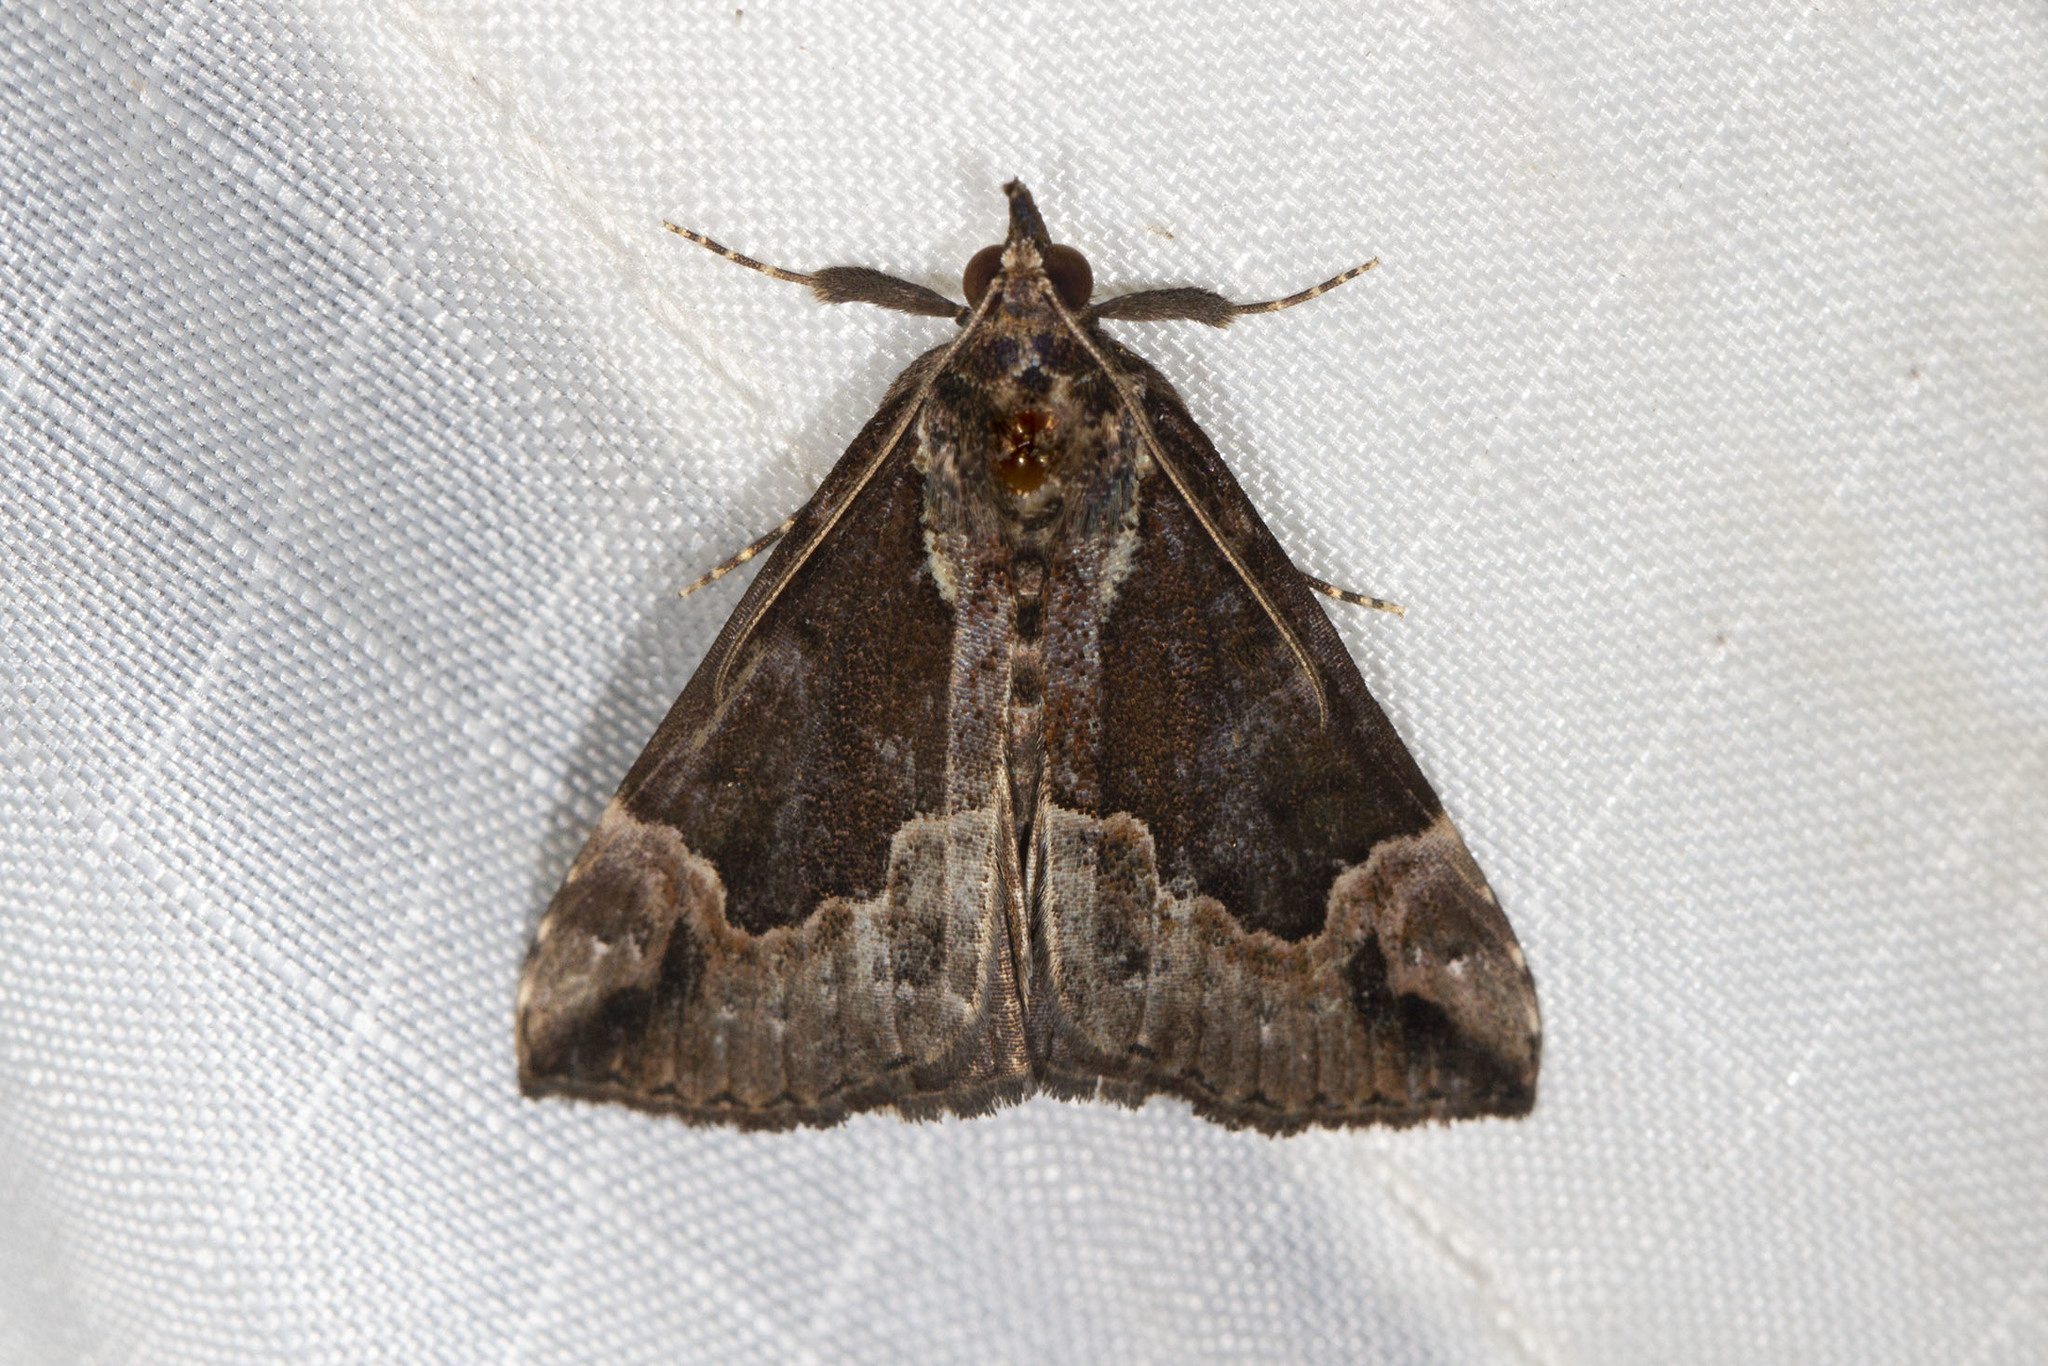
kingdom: Animalia
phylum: Arthropoda
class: Insecta
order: Lepidoptera
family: Erebidae
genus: Hypena
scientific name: Hypena baltimoralis
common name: Baltimore snout
